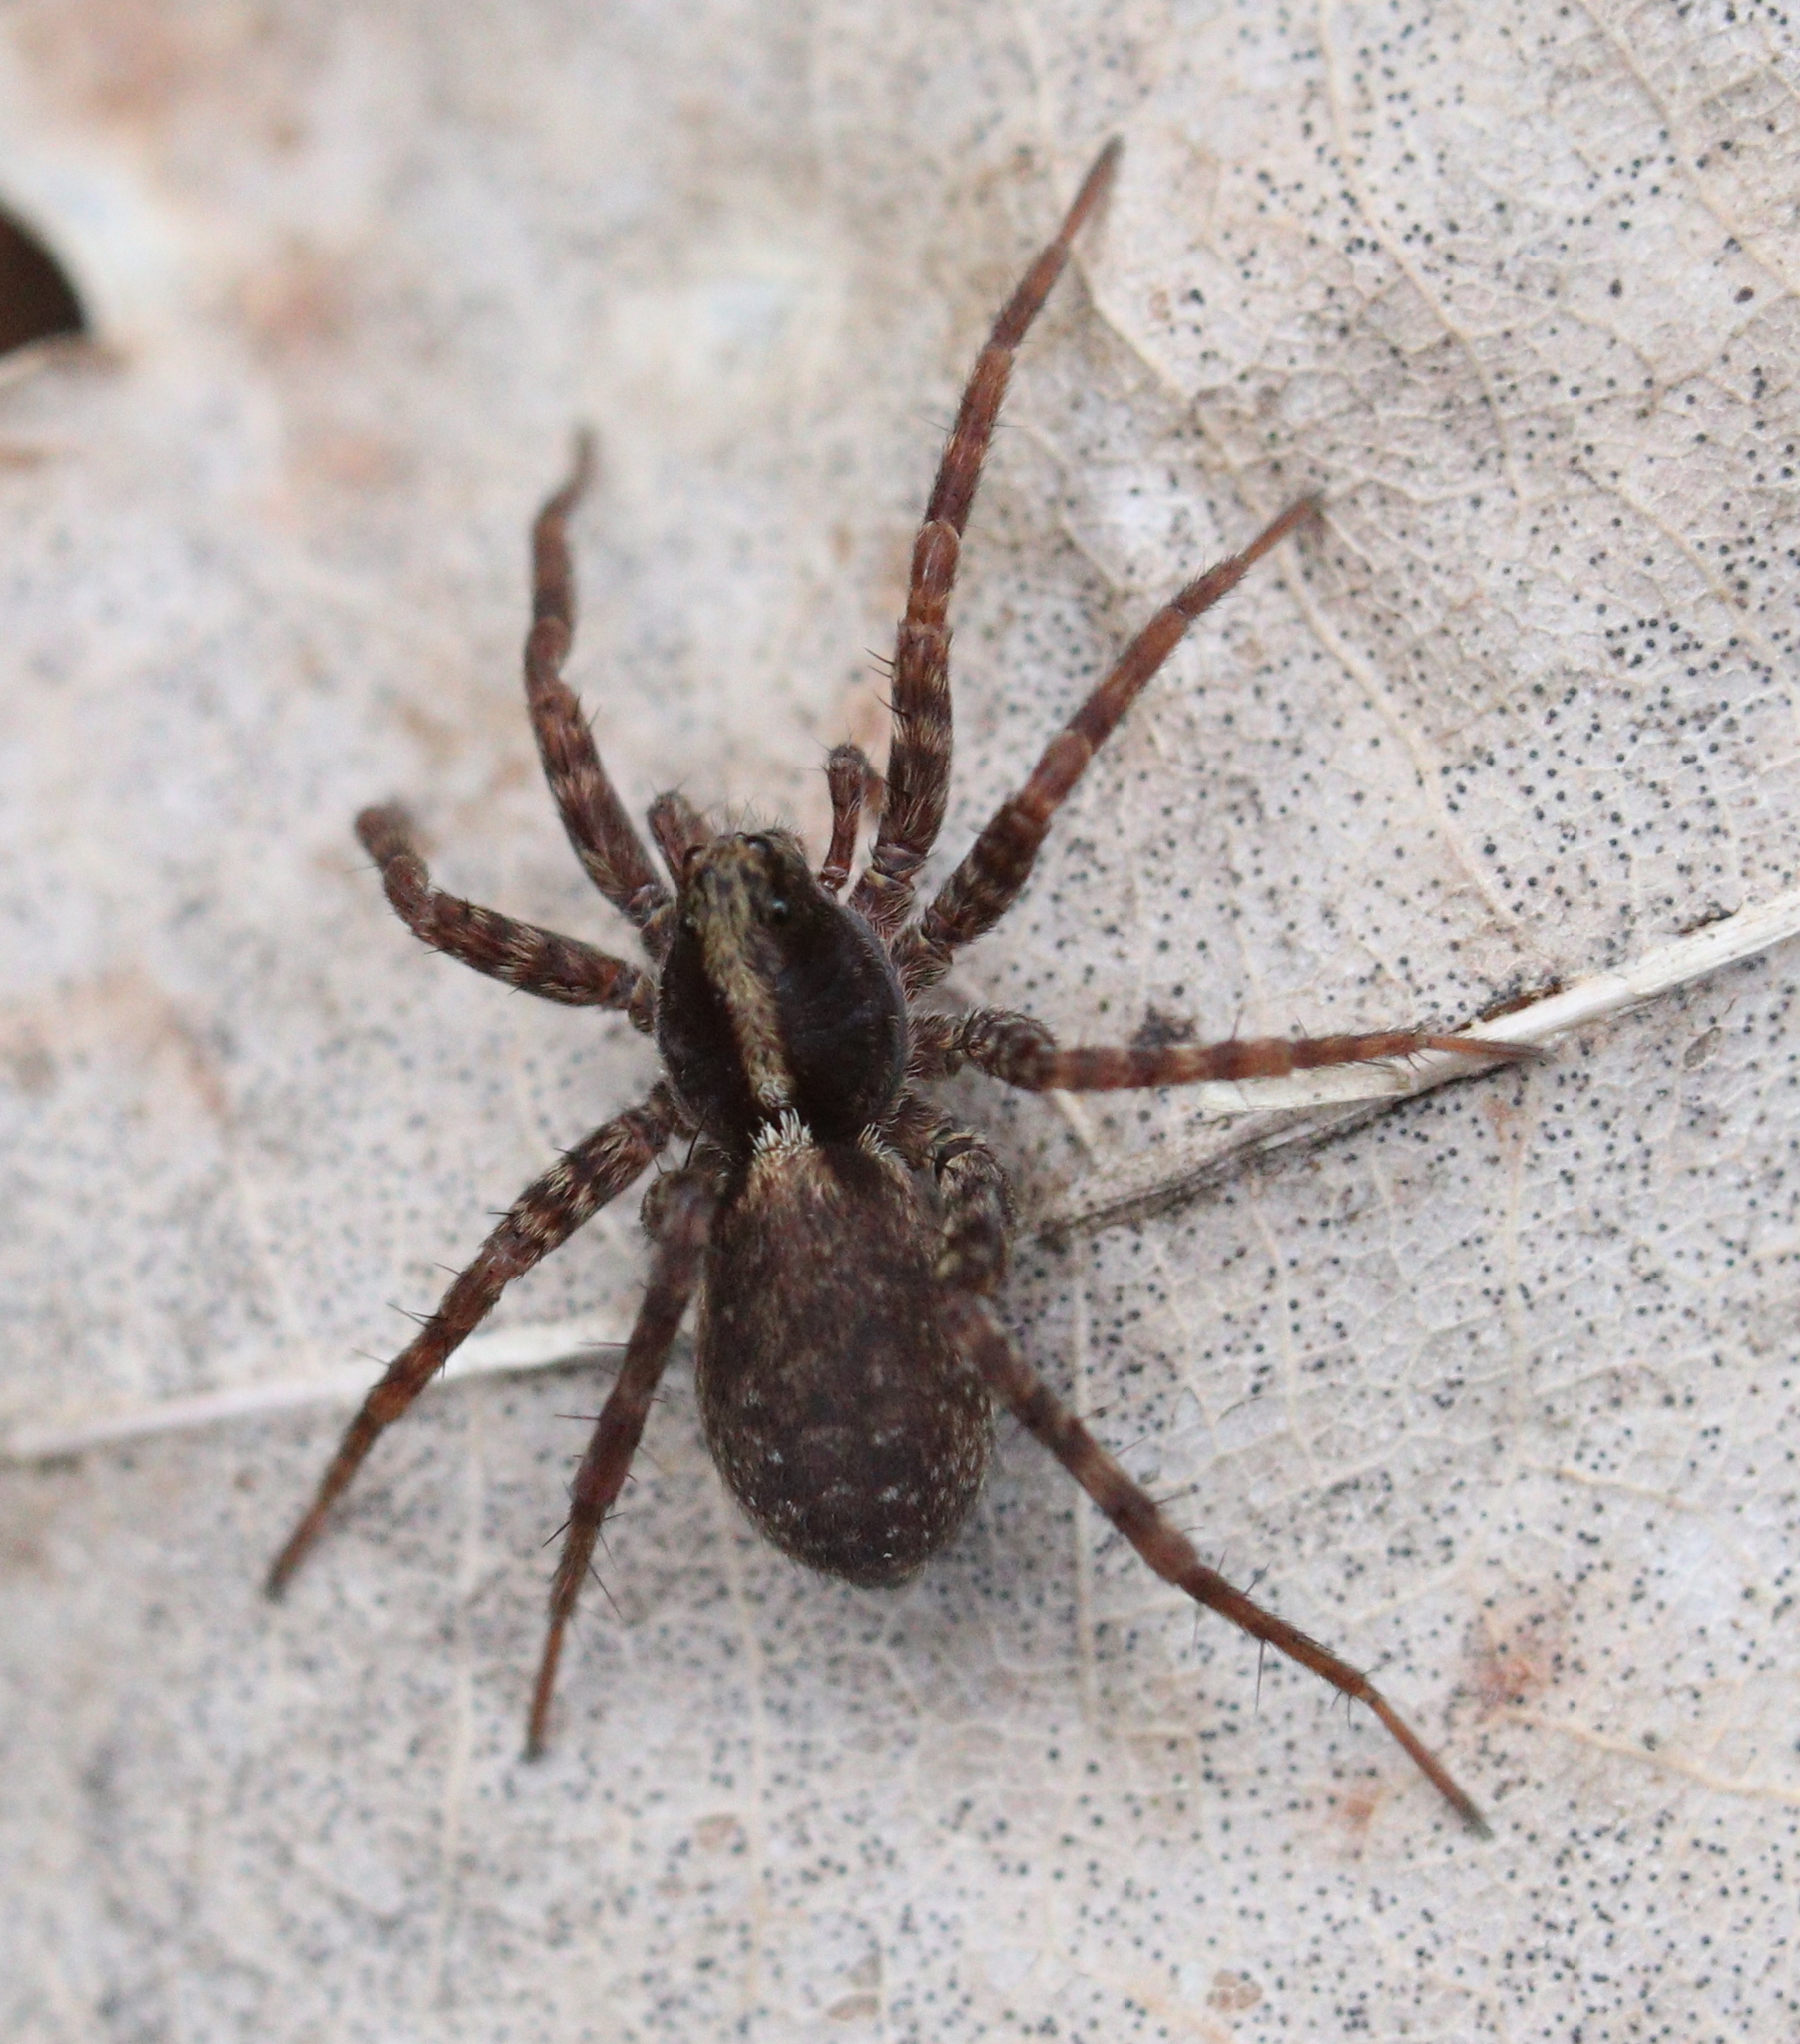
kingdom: Animalia
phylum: Arthropoda
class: Arachnida
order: Araneae
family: Lycosidae
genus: Pardosa
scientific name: Pardosa
